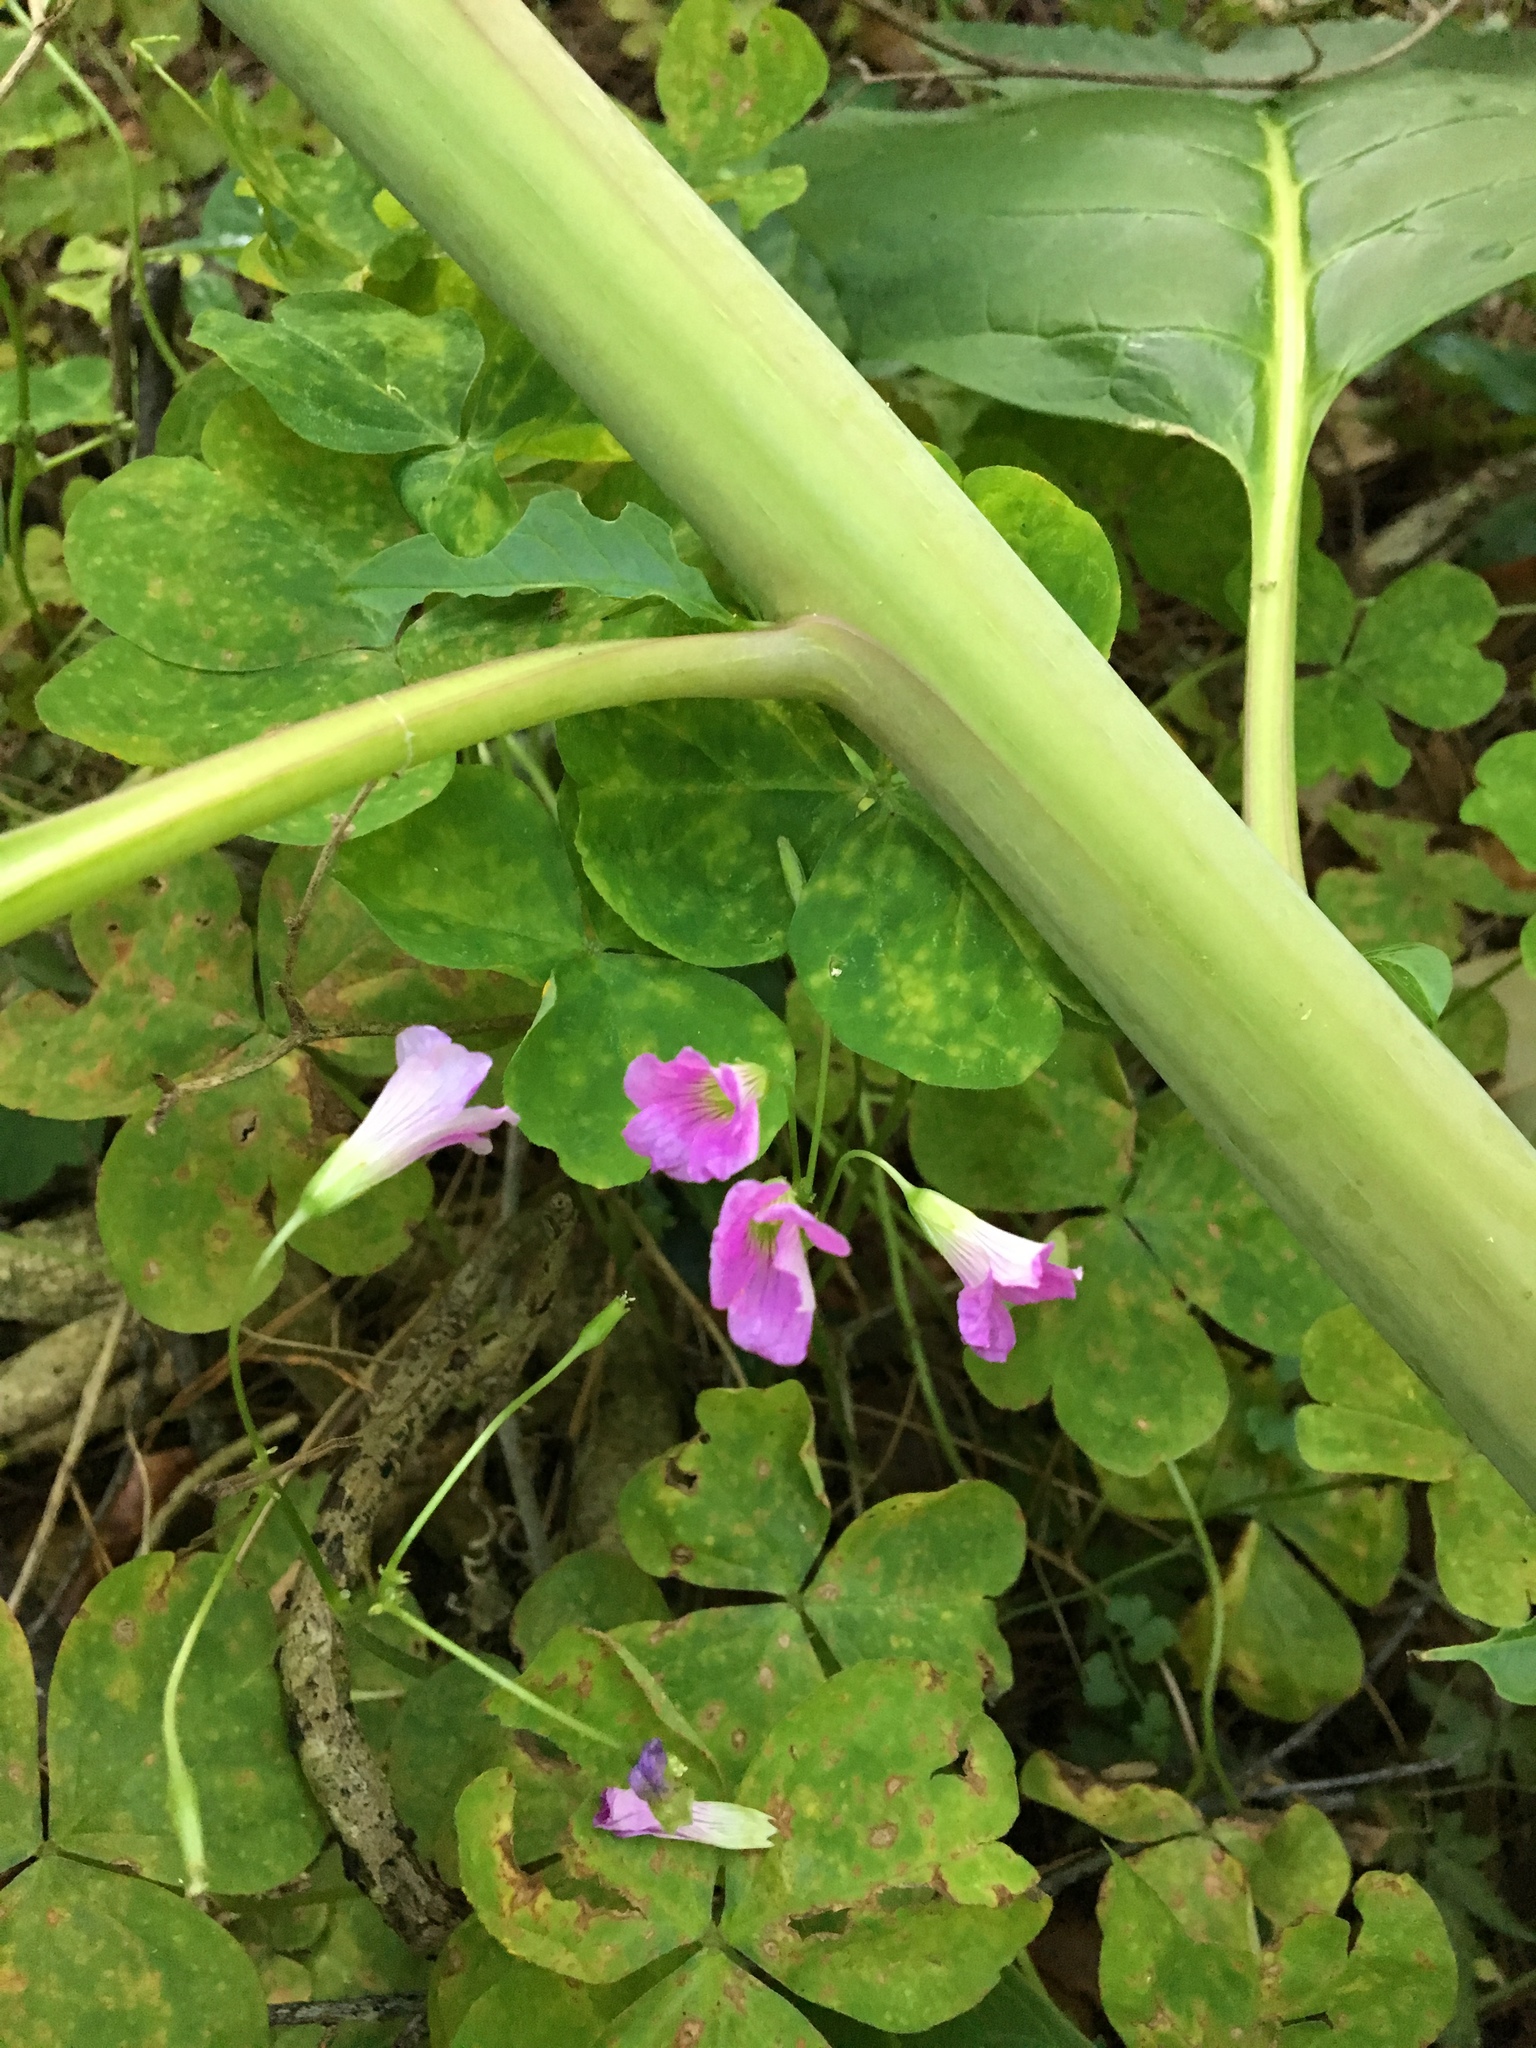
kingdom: Plantae
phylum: Tracheophyta
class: Magnoliopsida
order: Oxalidales
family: Oxalidaceae
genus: Oxalis
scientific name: Oxalis debilis
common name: Large-flowered pink-sorrel
